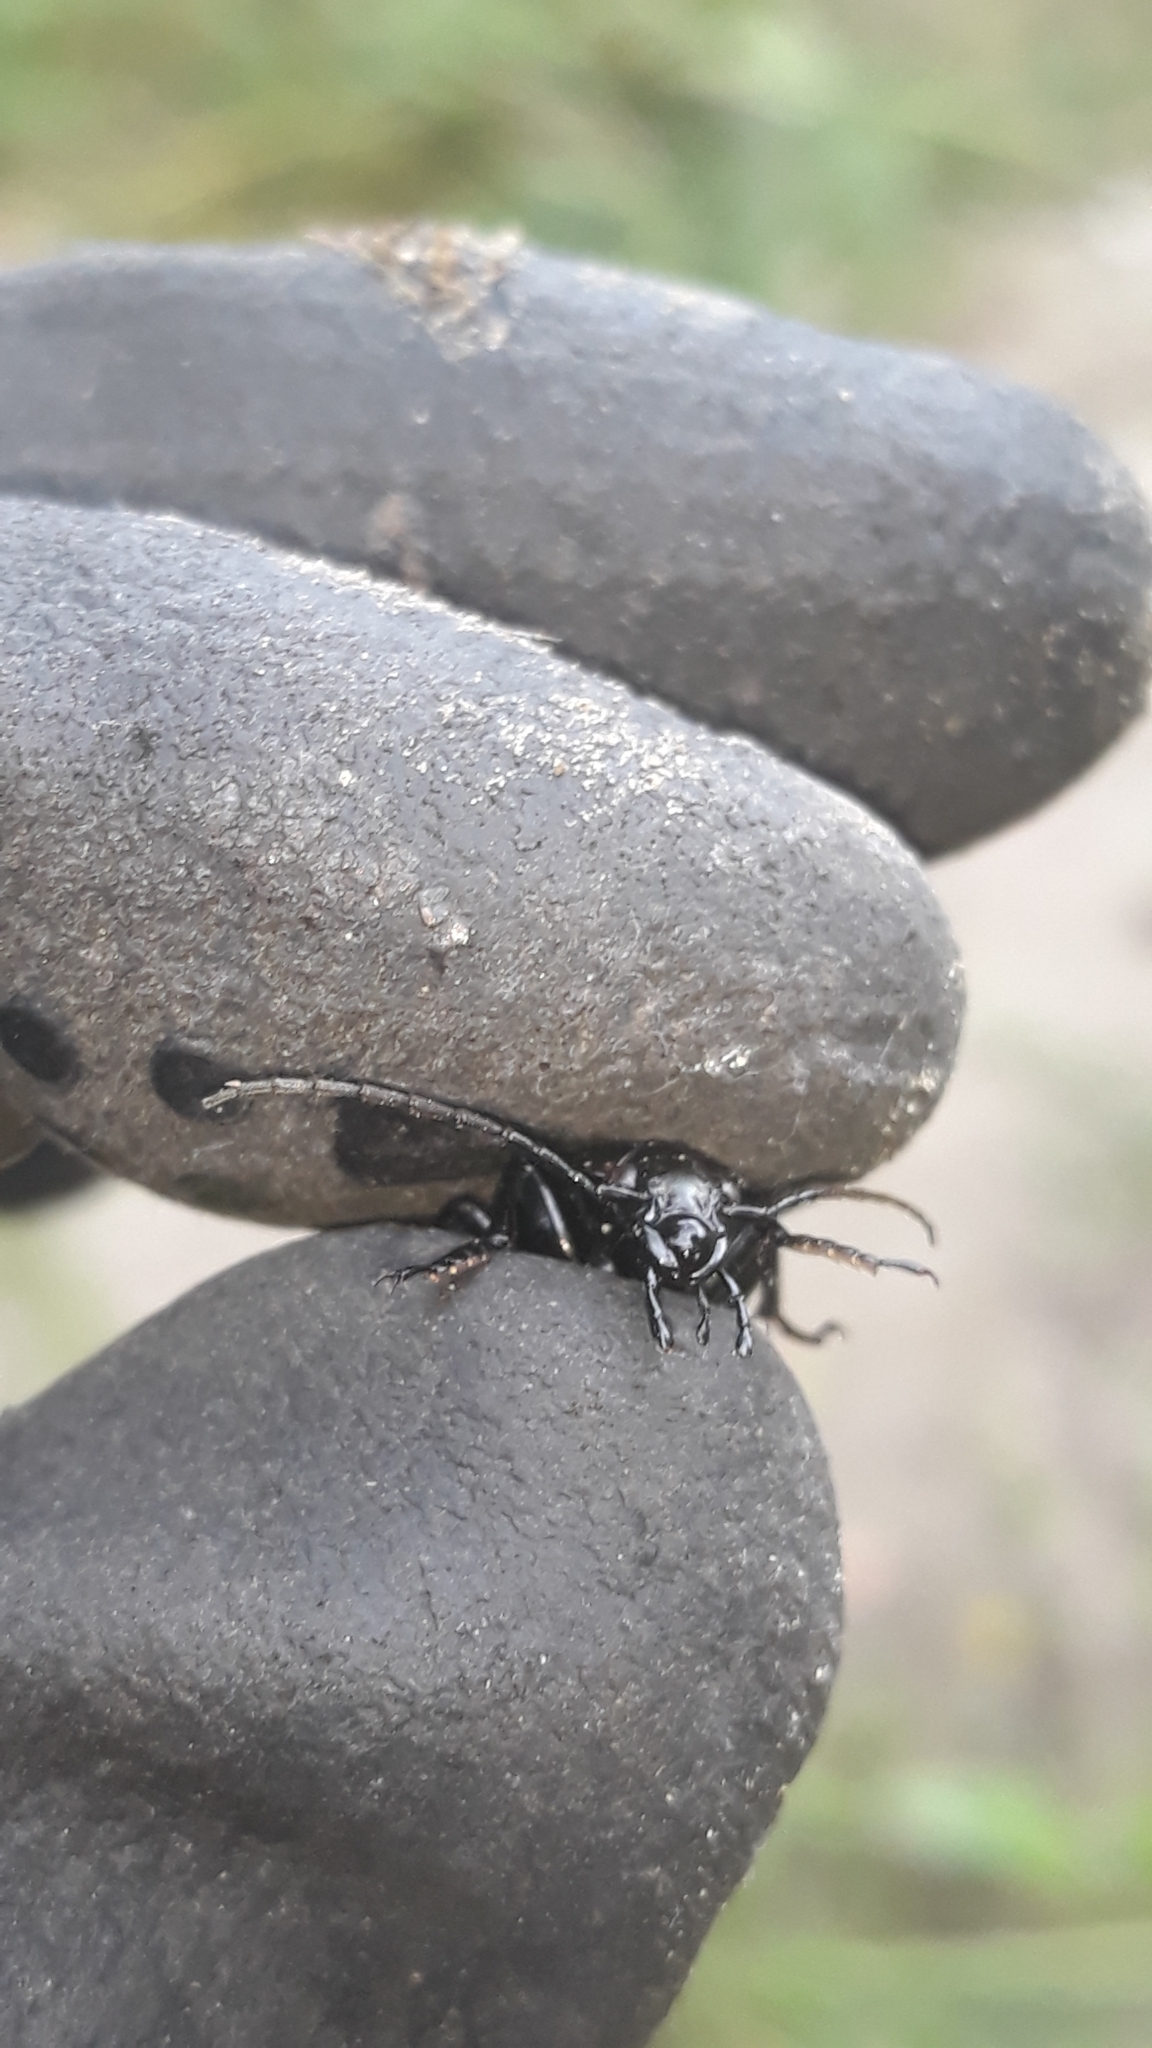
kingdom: Animalia
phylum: Arthropoda
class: Insecta
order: Coleoptera
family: Carabidae
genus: Carabus
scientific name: Carabus granulatus
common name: Granulate ground beetle
